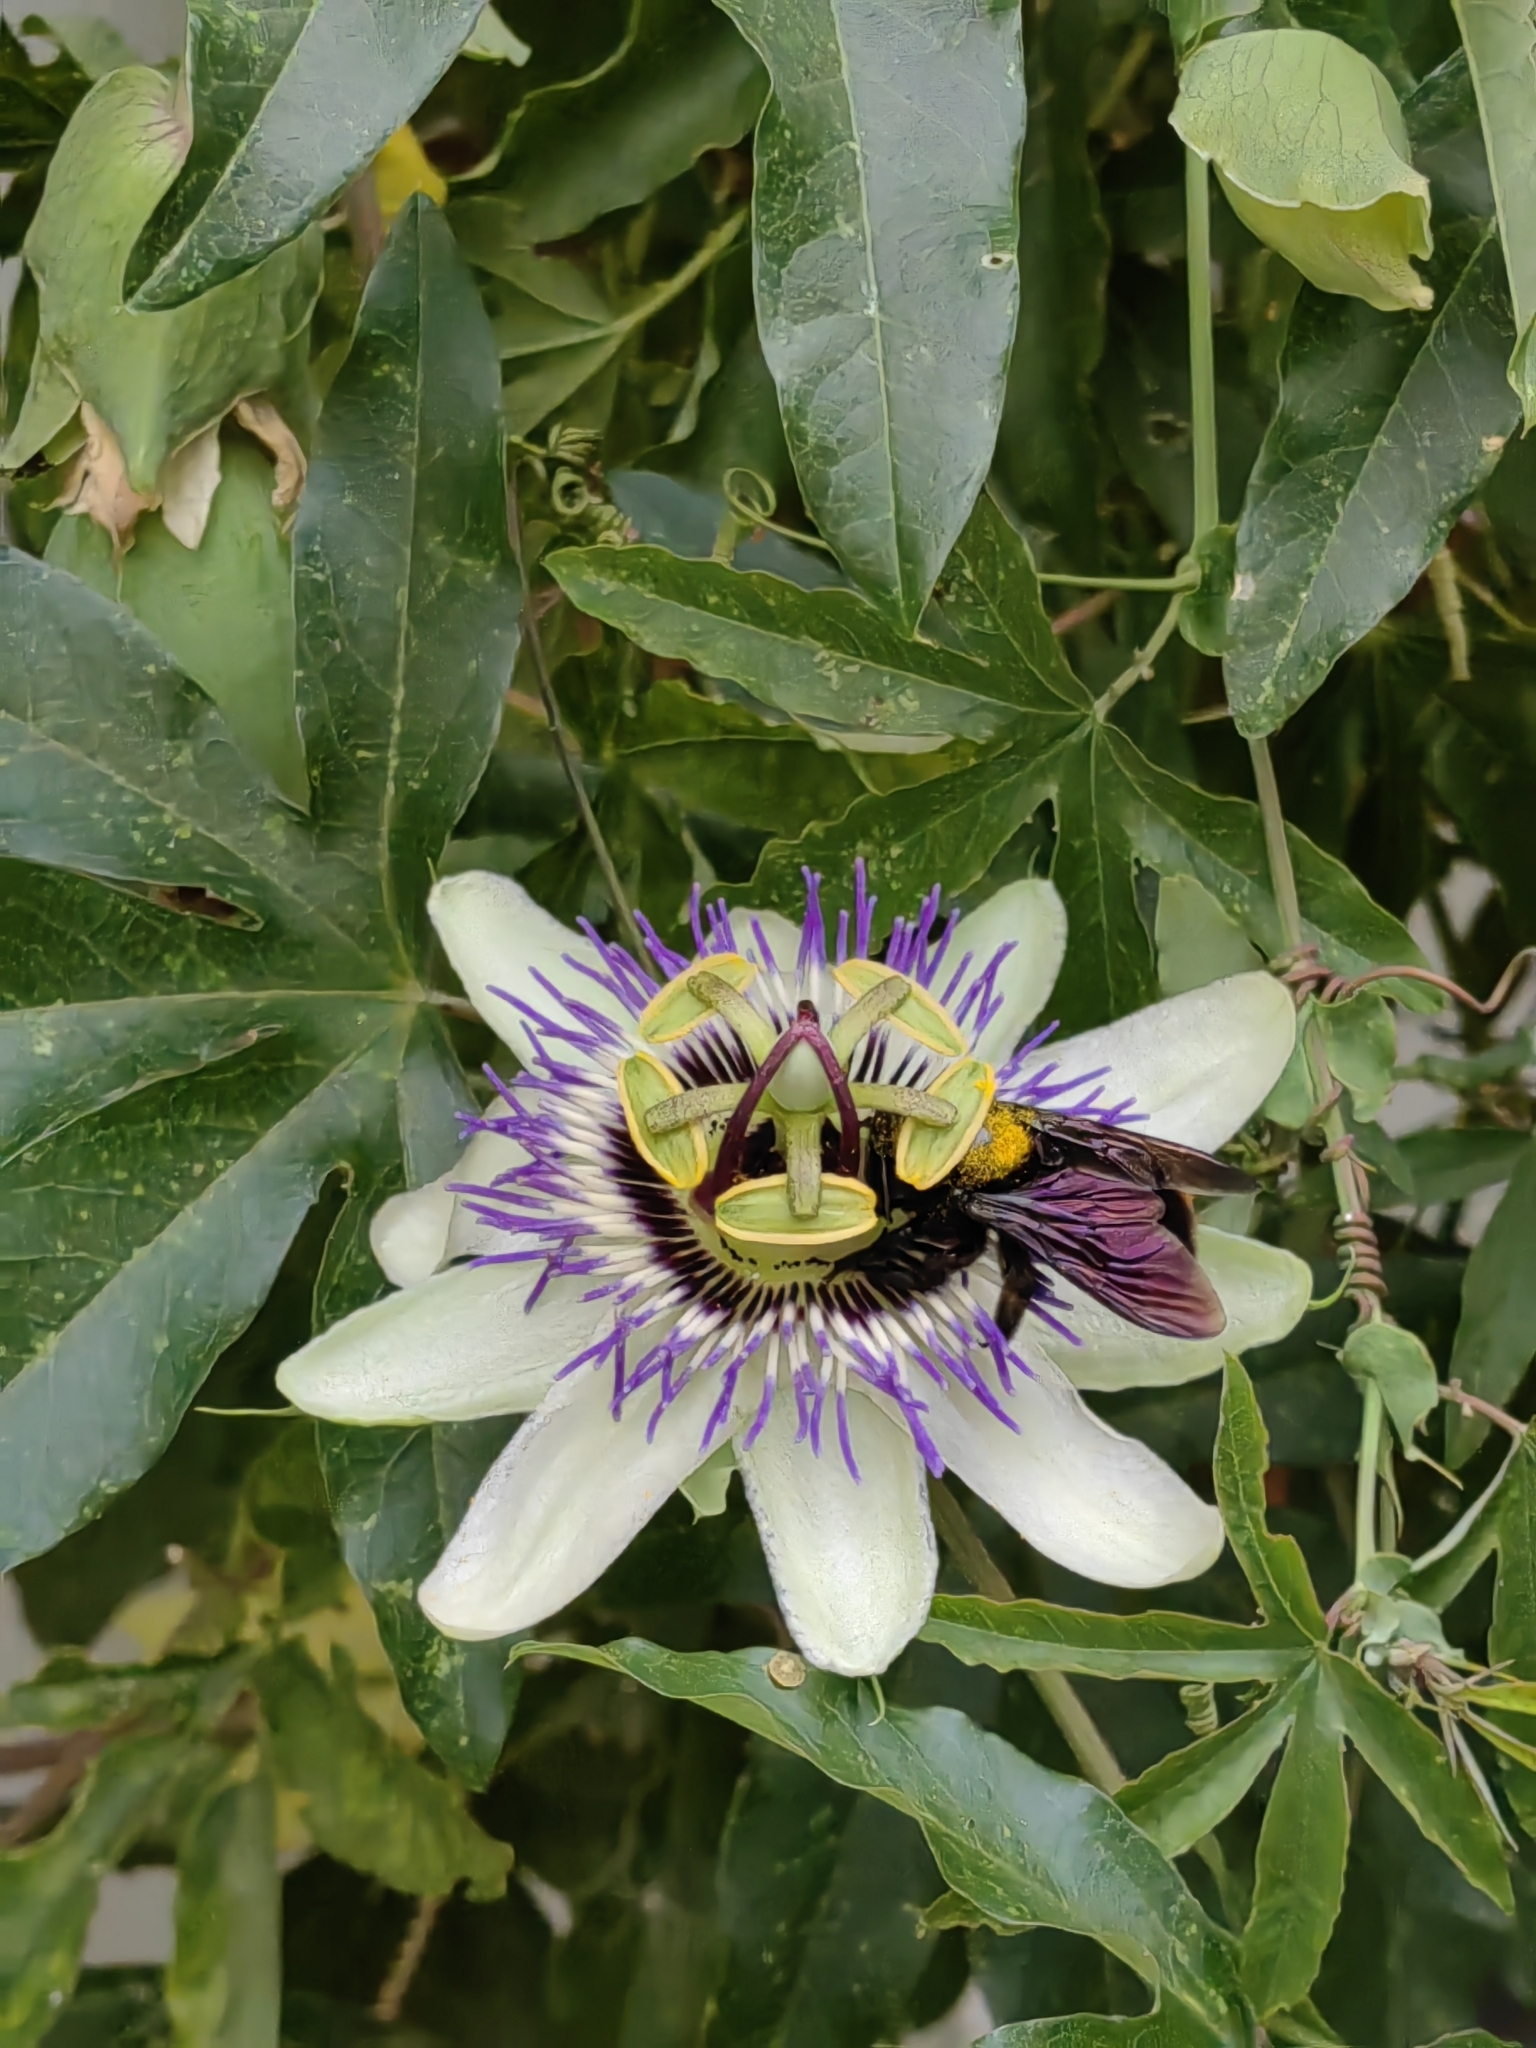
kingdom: Animalia
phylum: Arthropoda
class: Insecta
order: Hymenoptera
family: Apidae
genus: Xylocopa
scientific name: Xylocopa augusti
